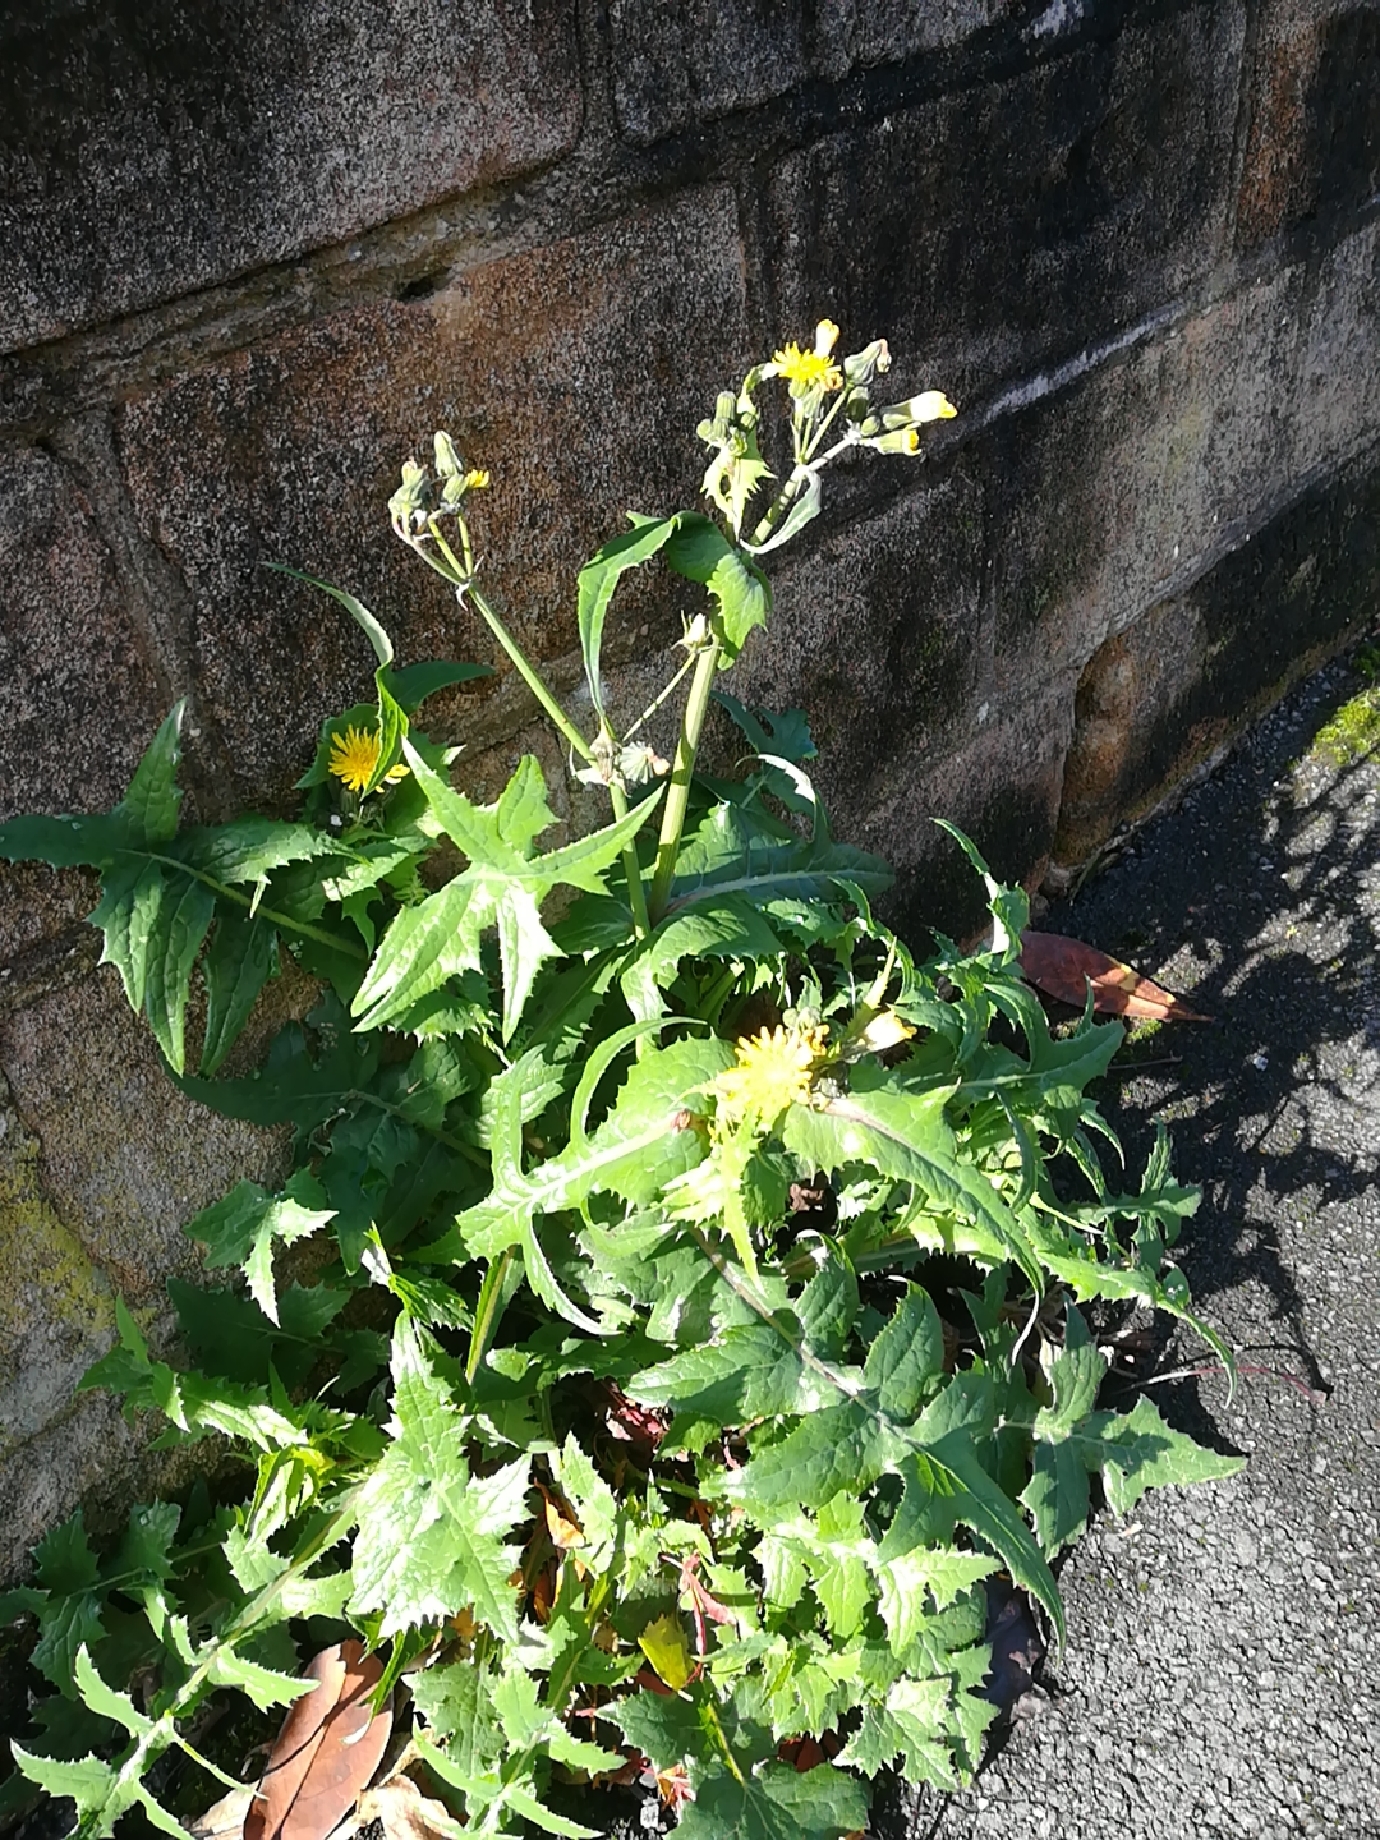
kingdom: Plantae
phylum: Tracheophyta
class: Magnoliopsida
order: Asterales
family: Asteraceae
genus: Sonchus
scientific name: Sonchus oleraceus
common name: Common sowthistle
